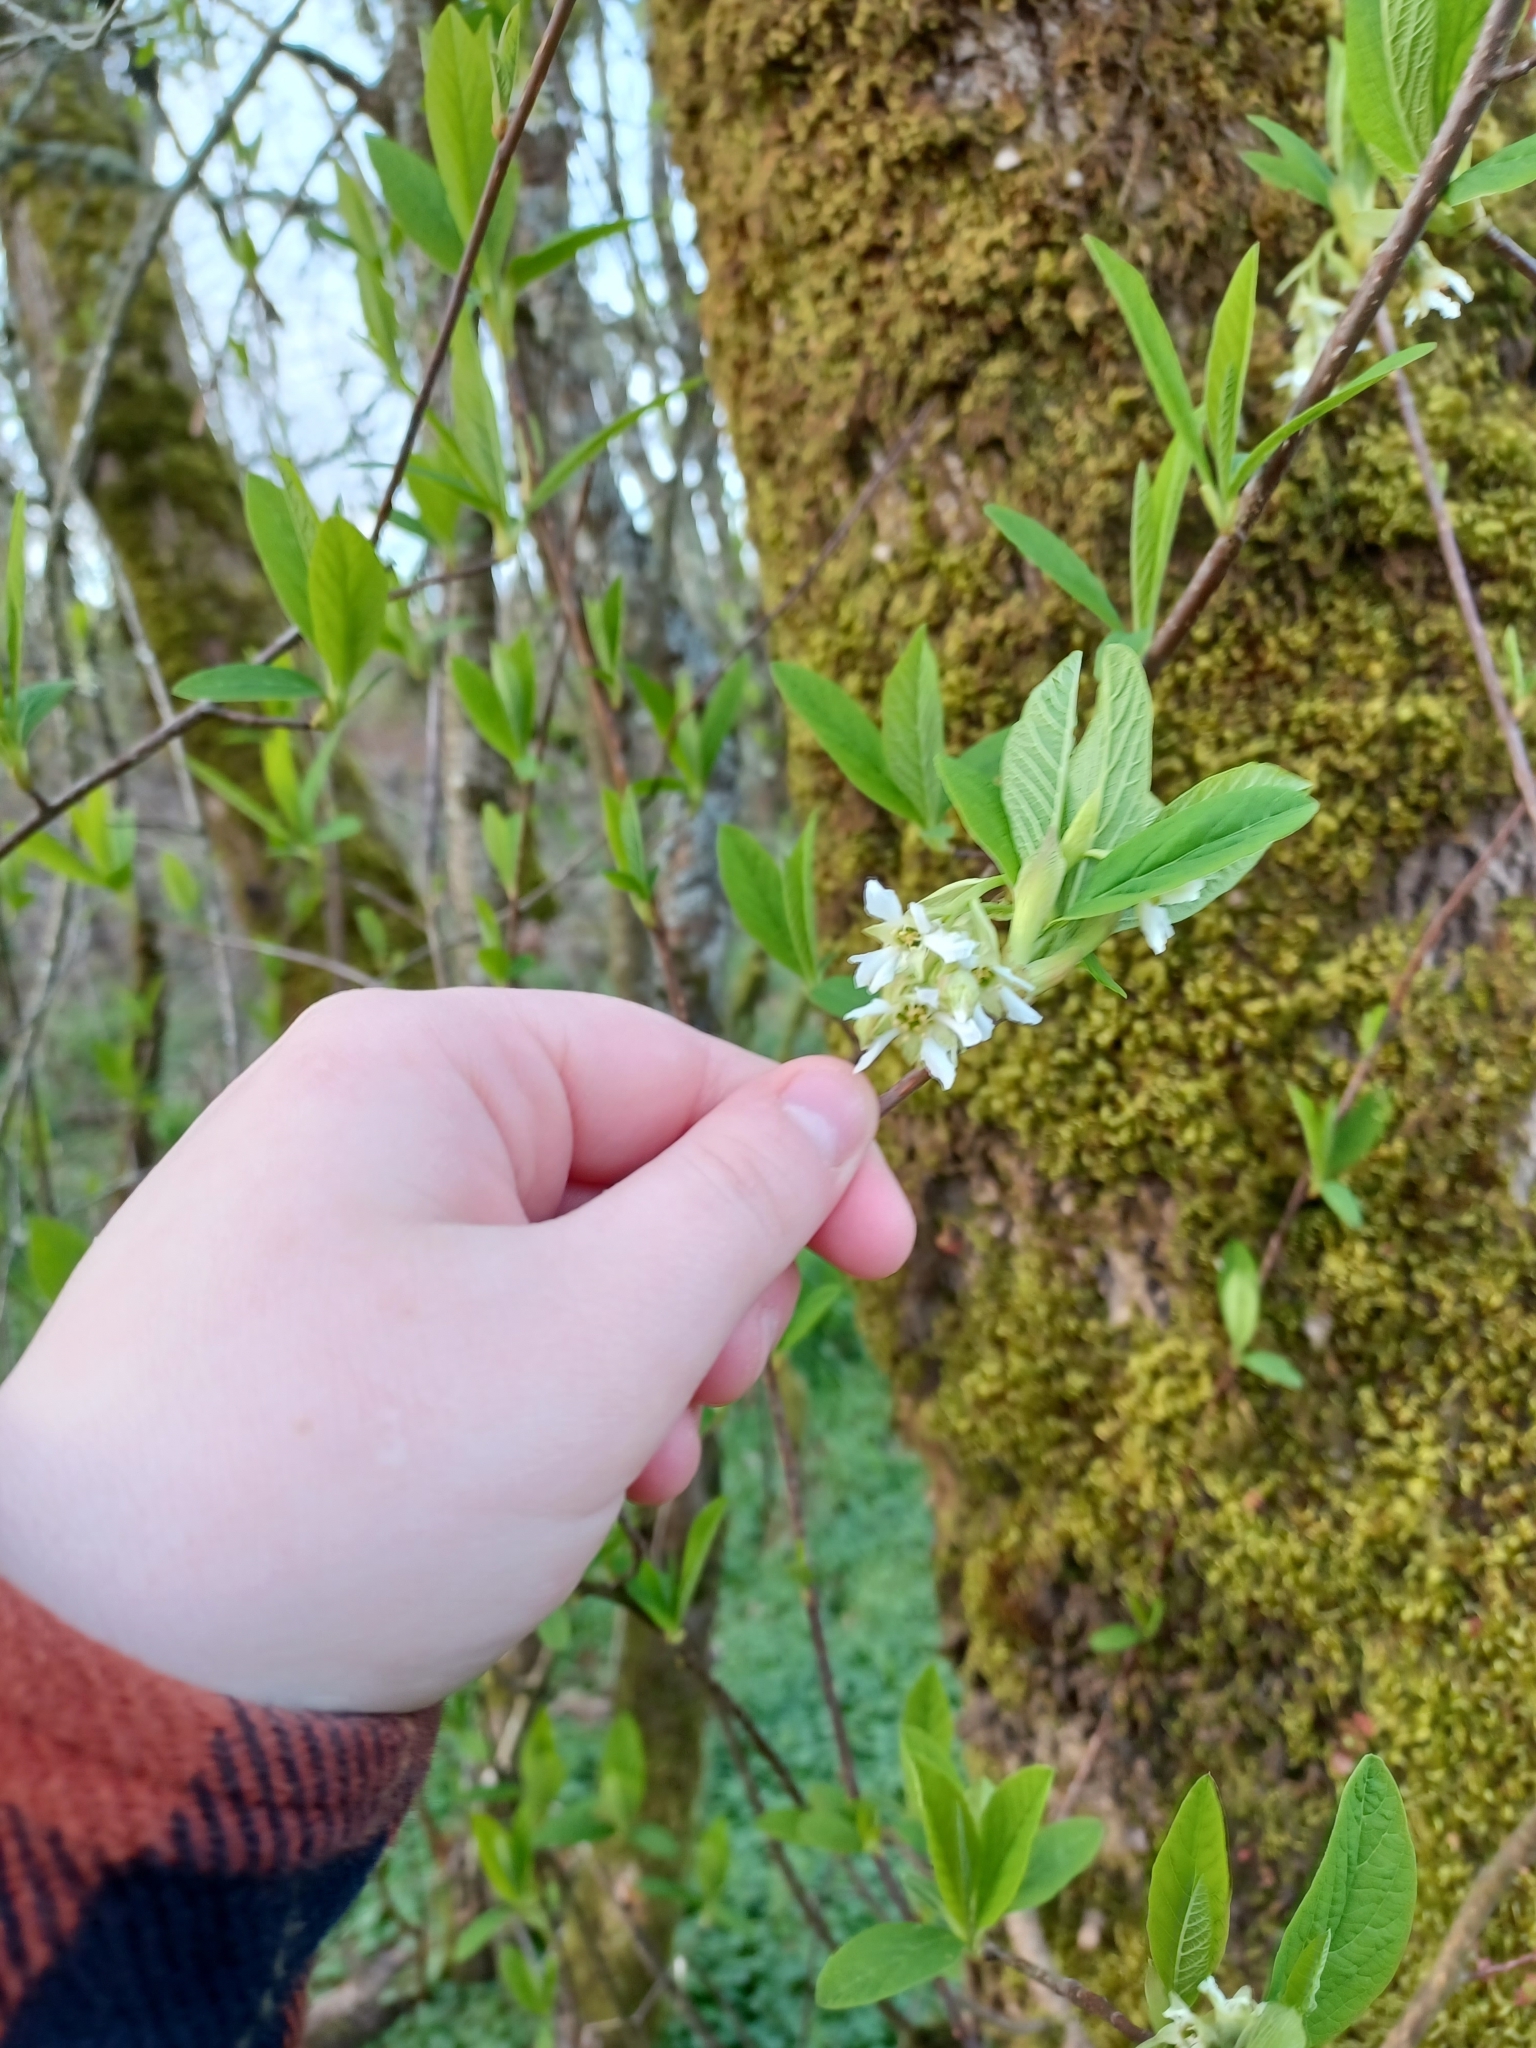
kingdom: Plantae
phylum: Tracheophyta
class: Magnoliopsida
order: Rosales
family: Rosaceae
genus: Oemleria
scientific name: Oemleria cerasiformis
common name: Osoberry
